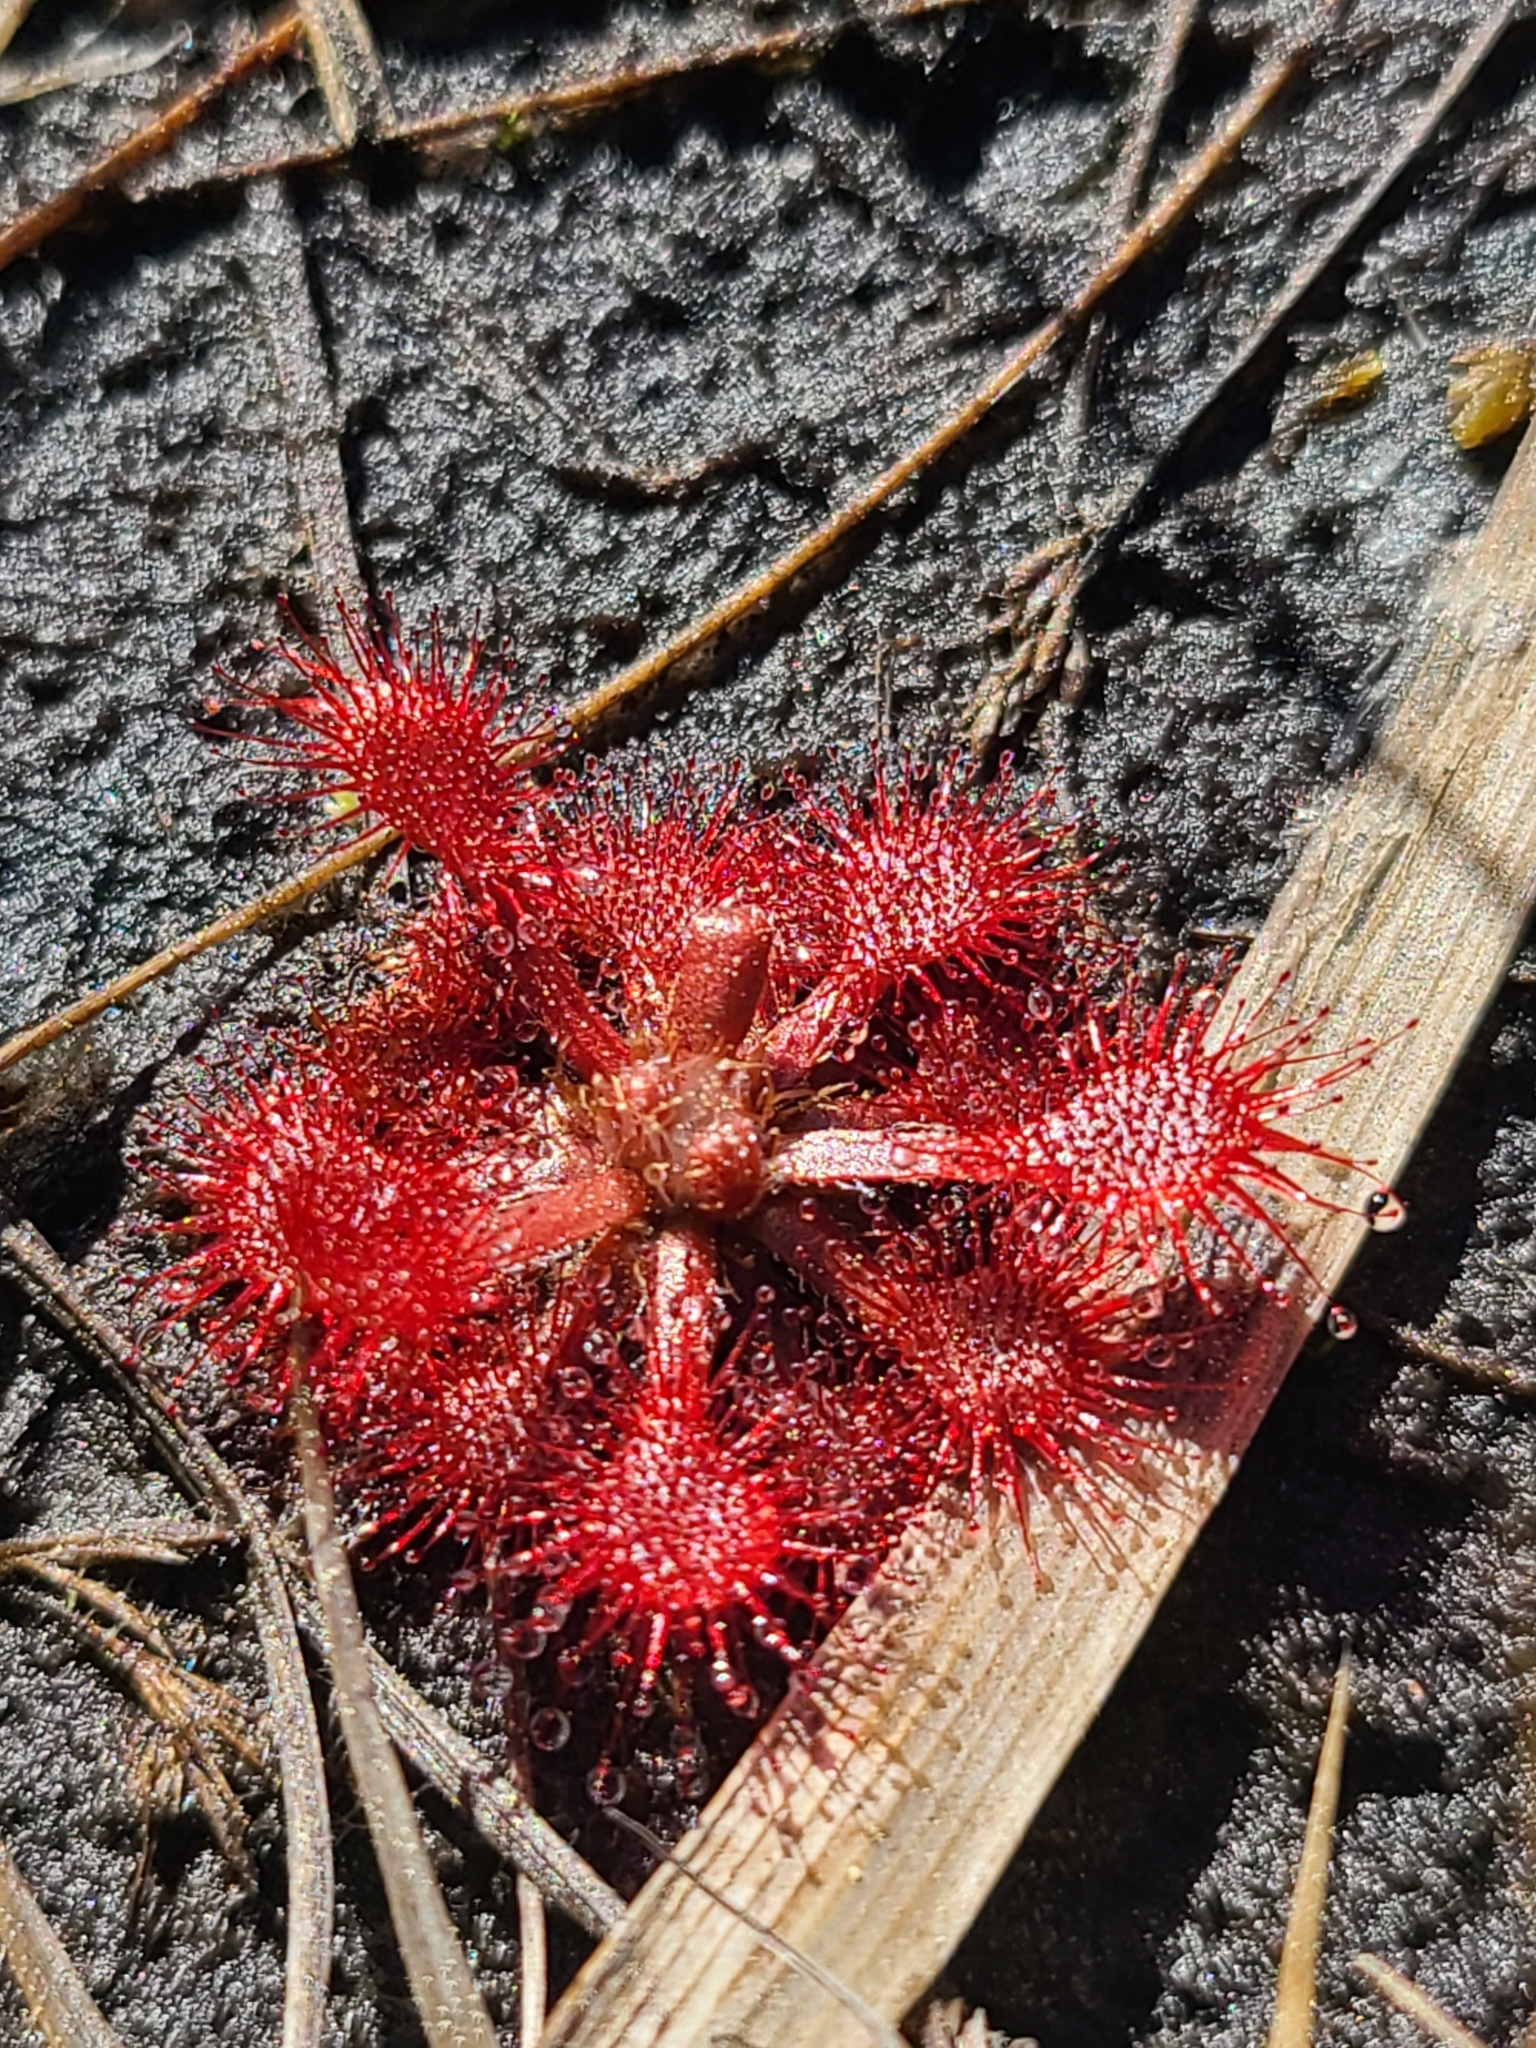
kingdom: Plantae
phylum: Tracheophyta
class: Magnoliopsida
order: Caryophyllales
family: Droseraceae
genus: Drosera
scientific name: Drosera capillaris
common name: Pink sundew
